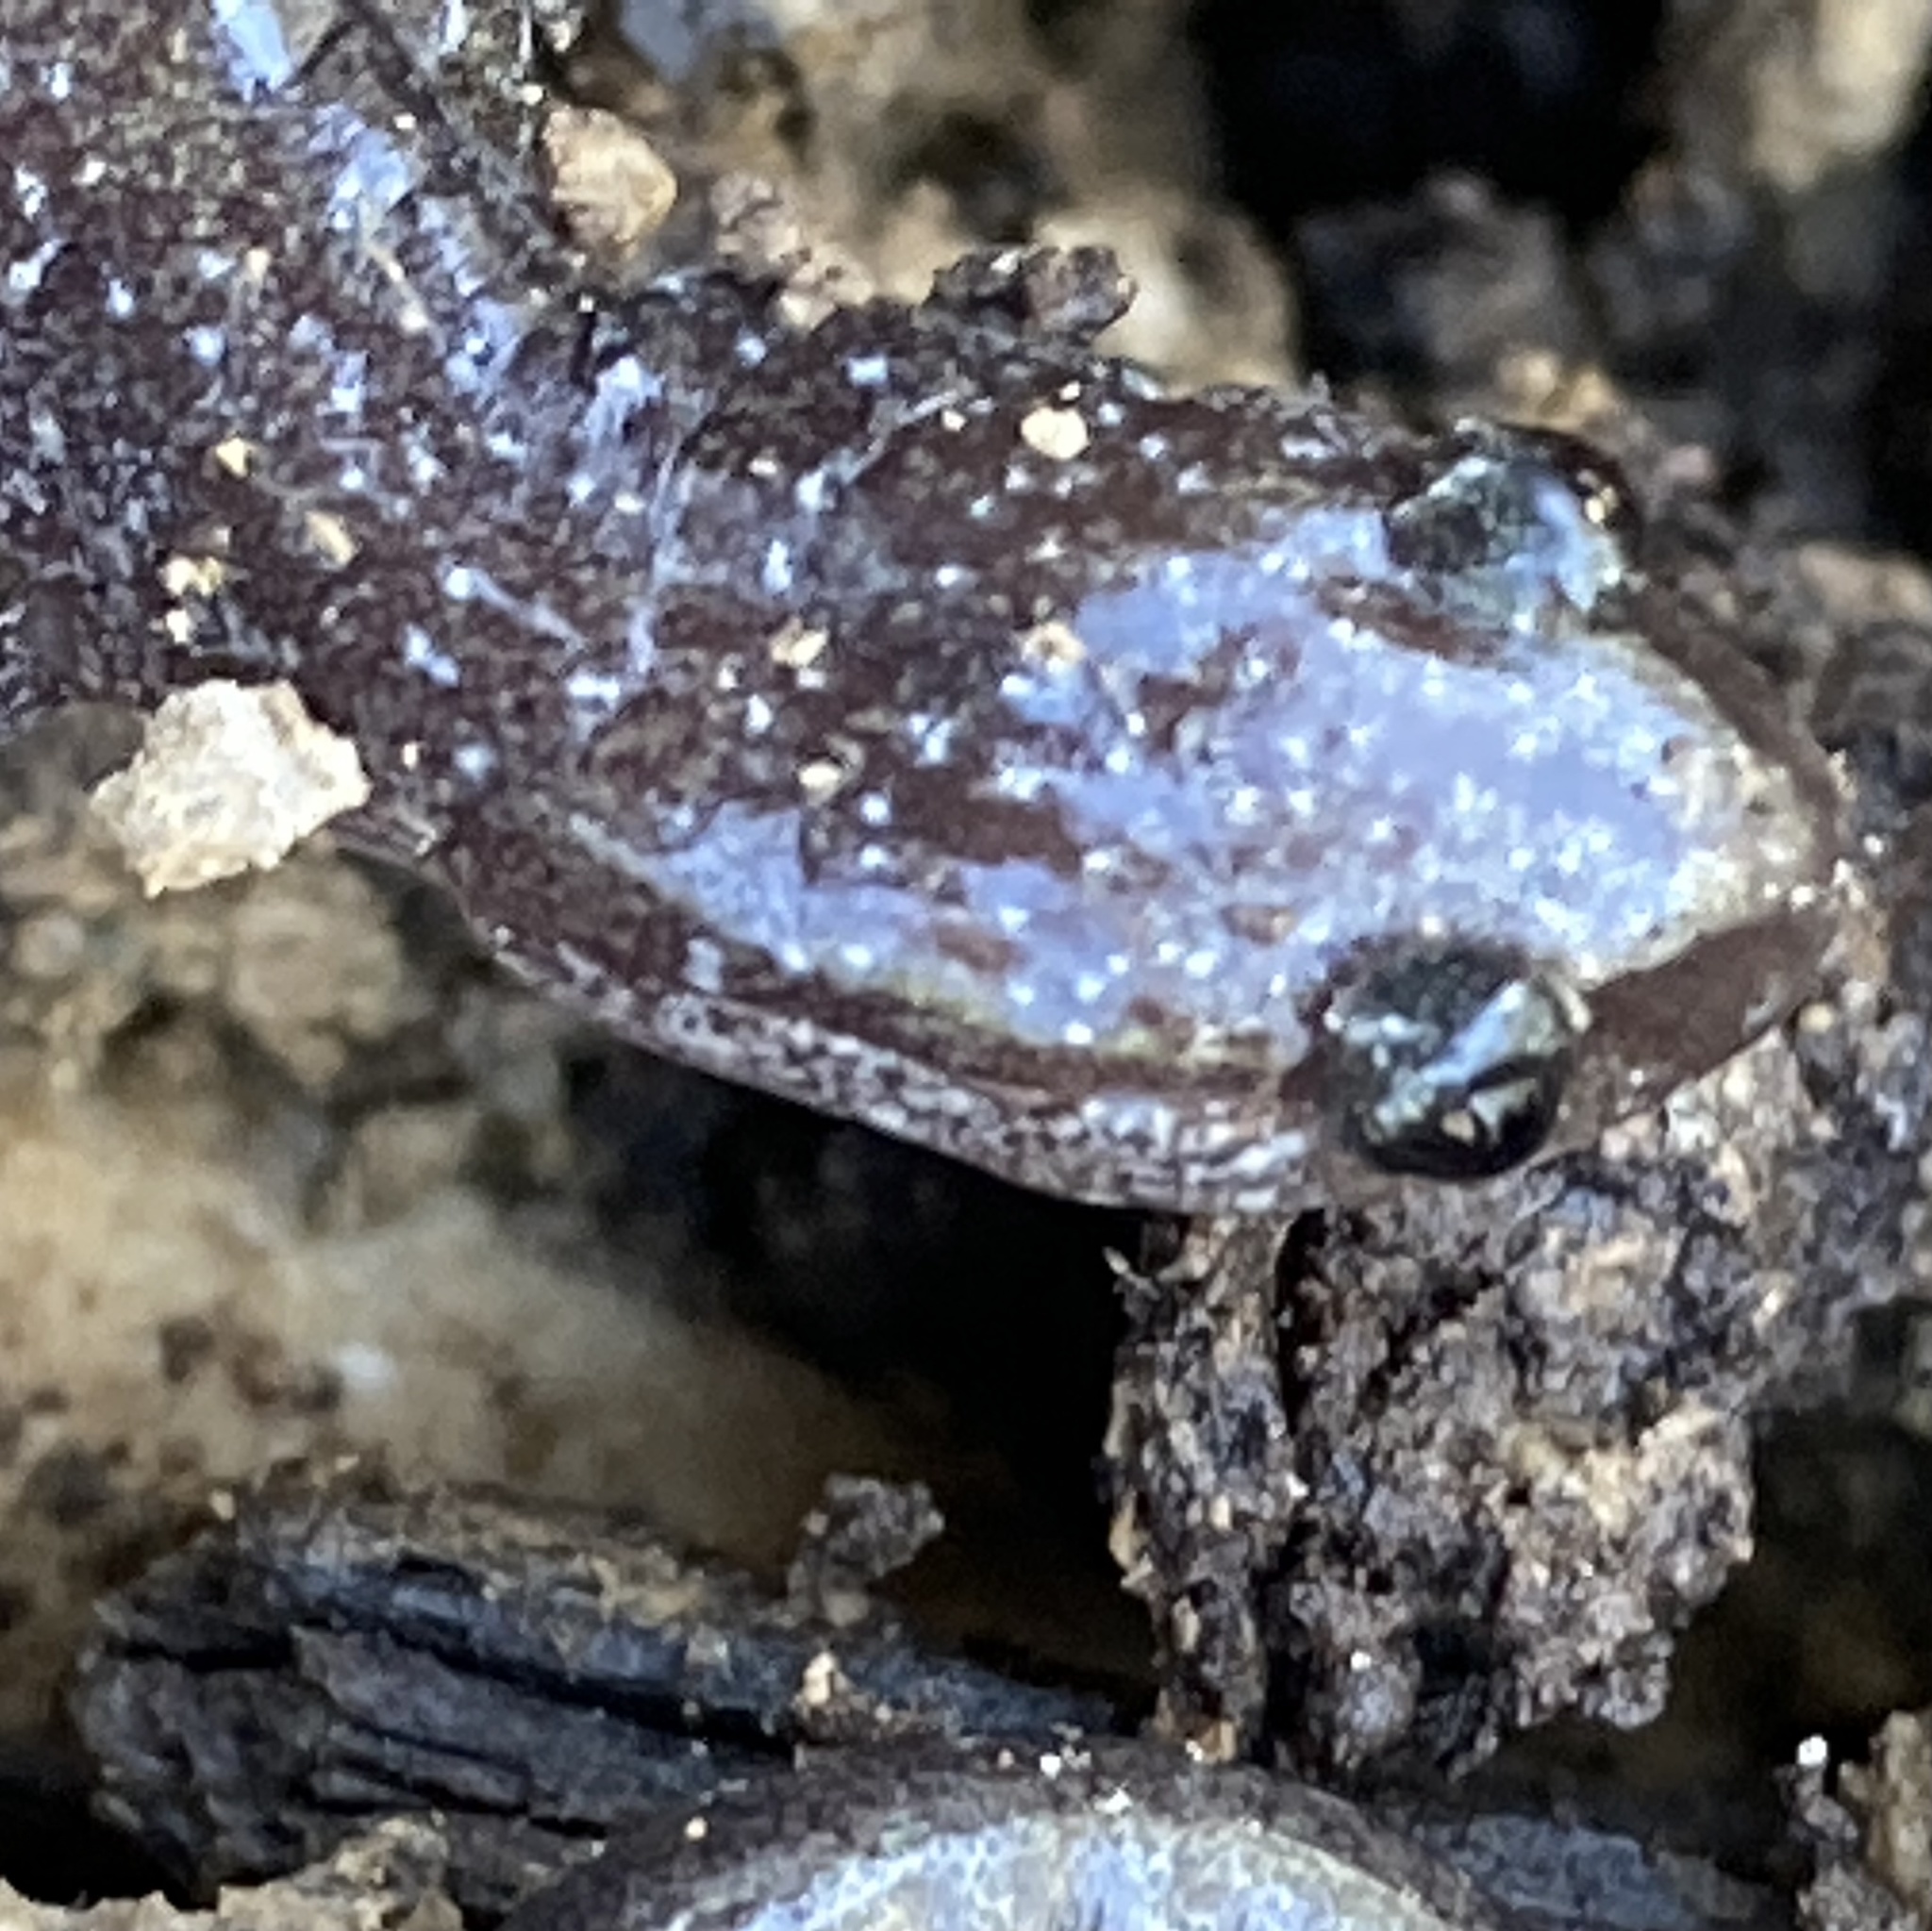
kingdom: Animalia
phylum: Chordata
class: Amphibia
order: Caudata
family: Plethodontidae
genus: Plethodon
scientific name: Plethodon cinereus
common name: Redback salamander
